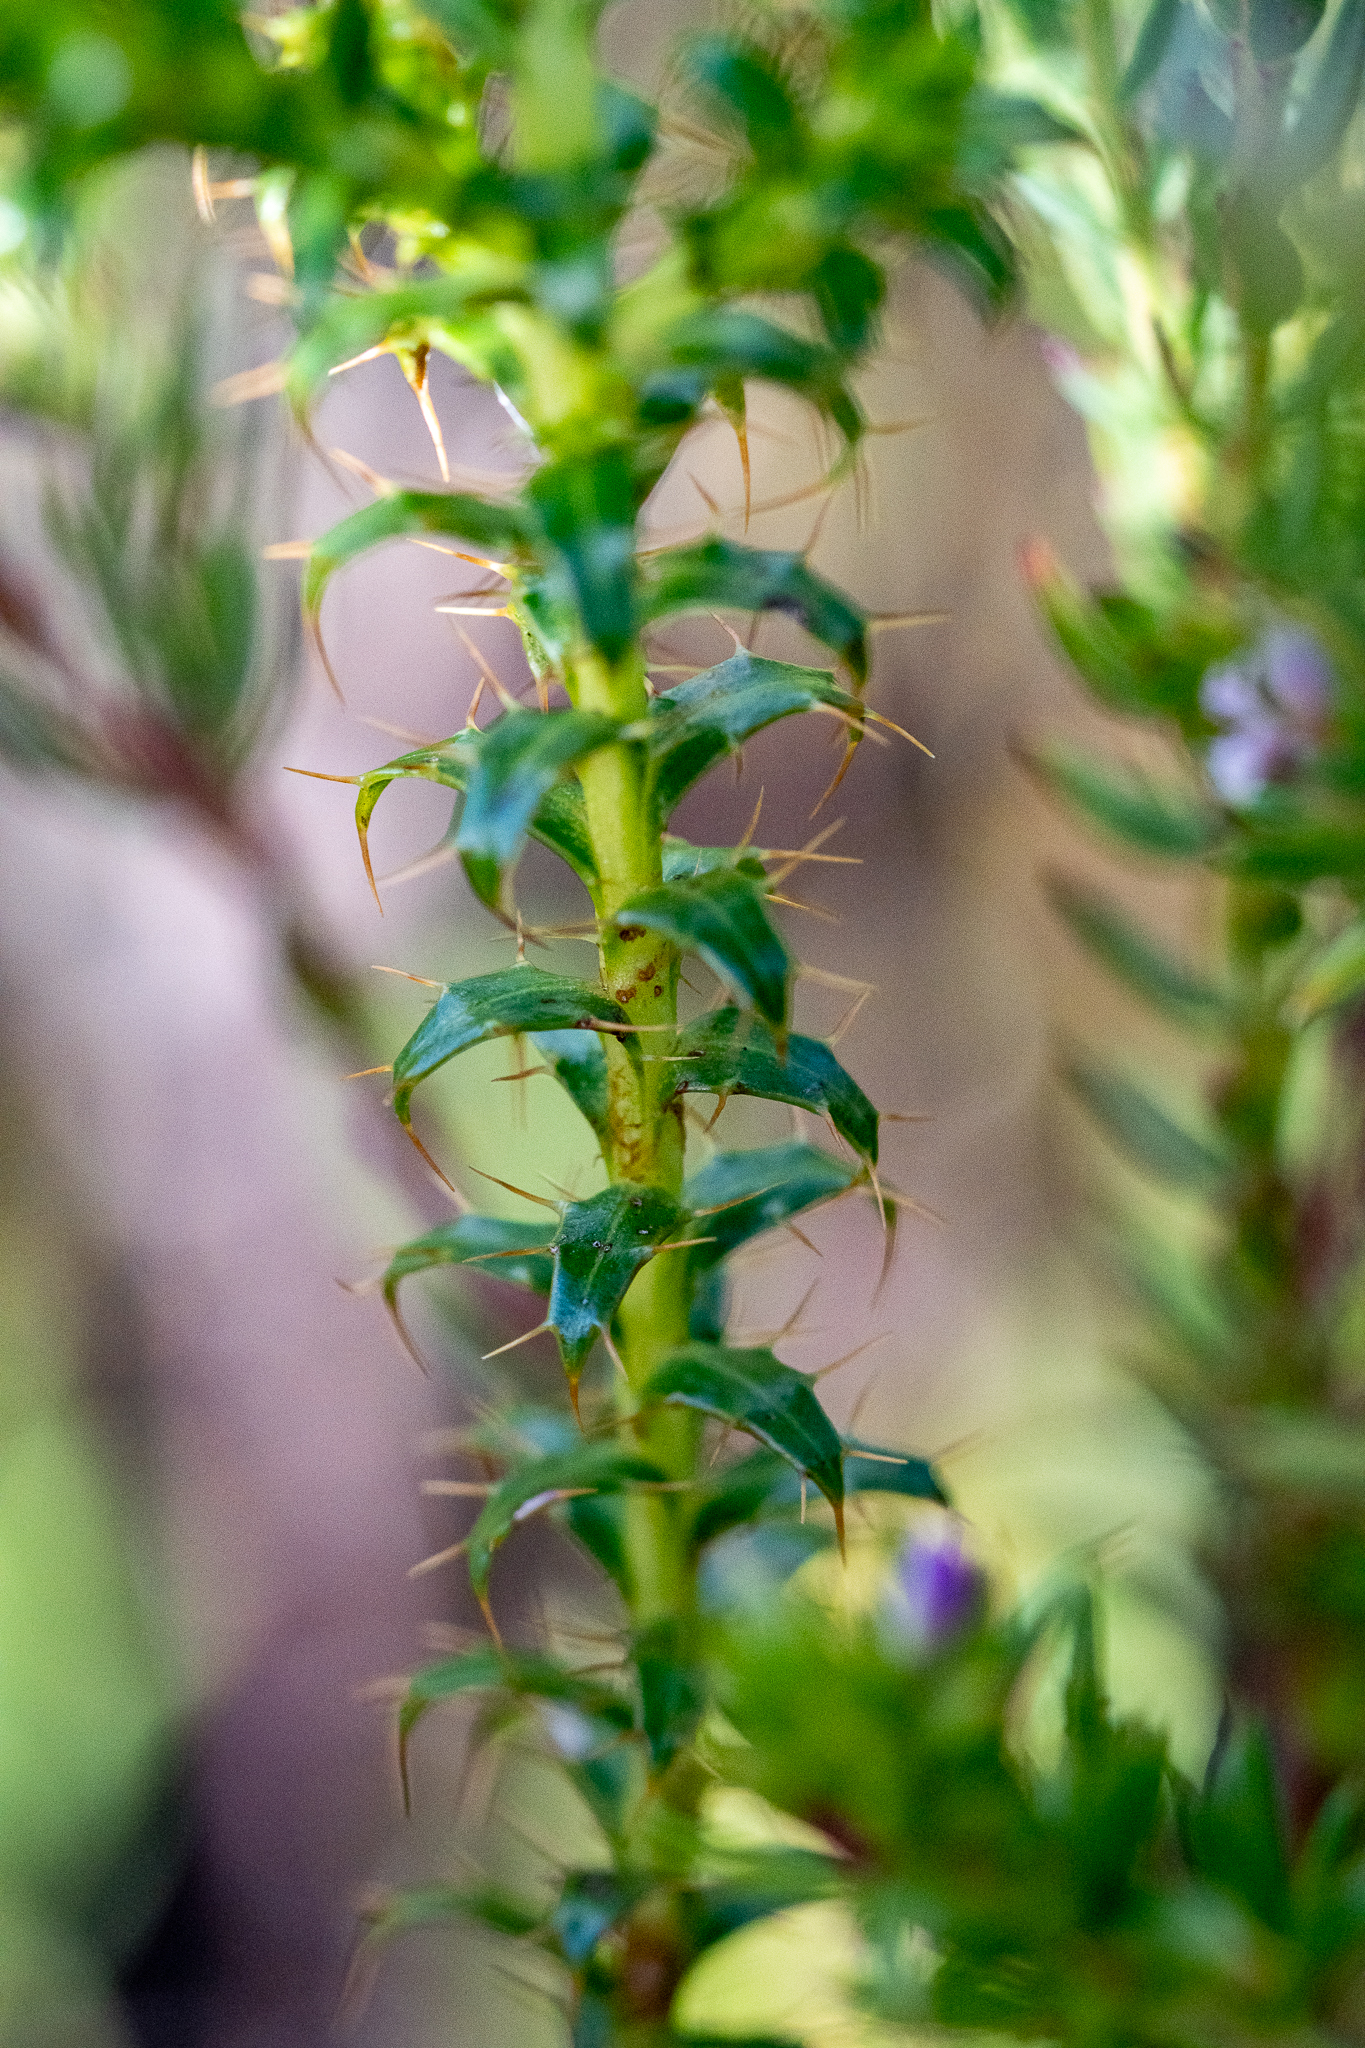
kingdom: Plantae
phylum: Tracheophyta
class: Magnoliopsida
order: Asterales
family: Asteraceae
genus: Cullumia
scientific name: Cullumia setosa
